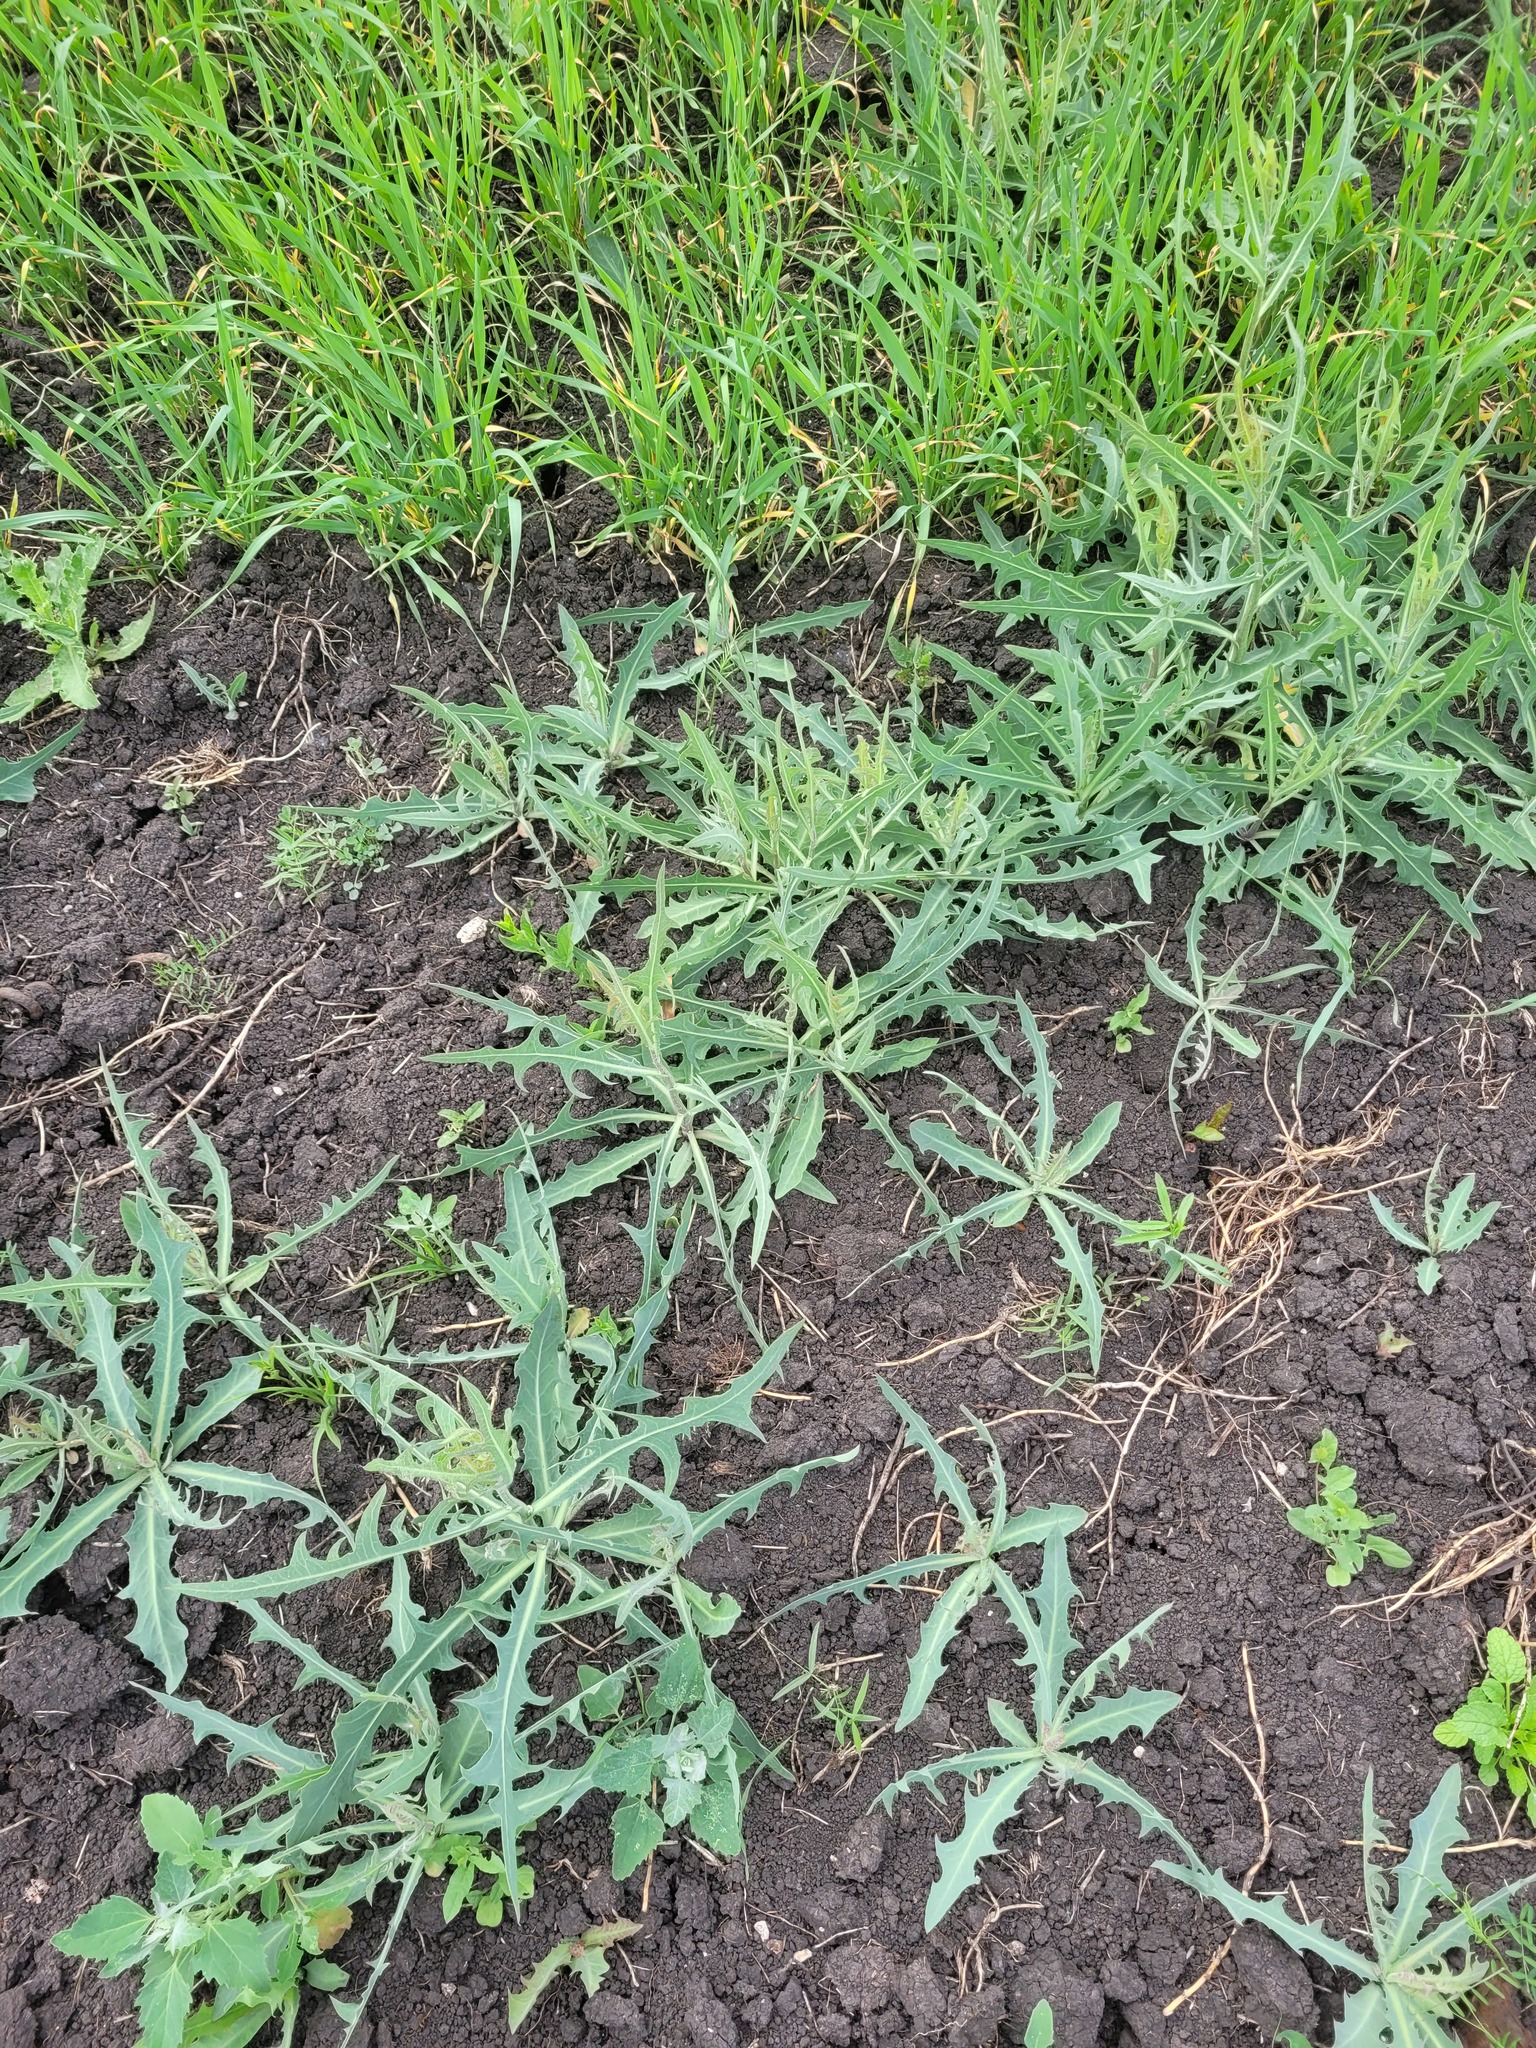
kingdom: Plantae
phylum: Tracheophyta
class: Magnoliopsida
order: Asterales
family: Asteraceae
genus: Lactuca
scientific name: Lactuca tatarica
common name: Blue lettuce
